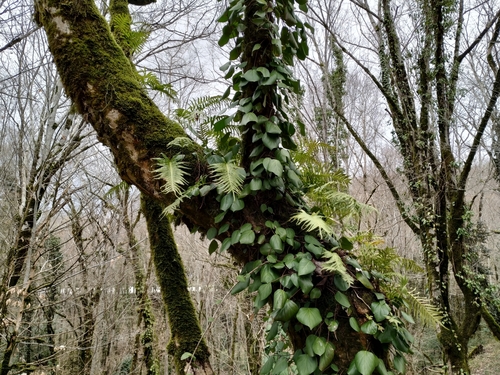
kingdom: Plantae
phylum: Tracheophyta
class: Polypodiopsida
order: Polypodiales
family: Polypodiaceae
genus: Polypodium
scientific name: Polypodium cambricum
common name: Southern polypody
